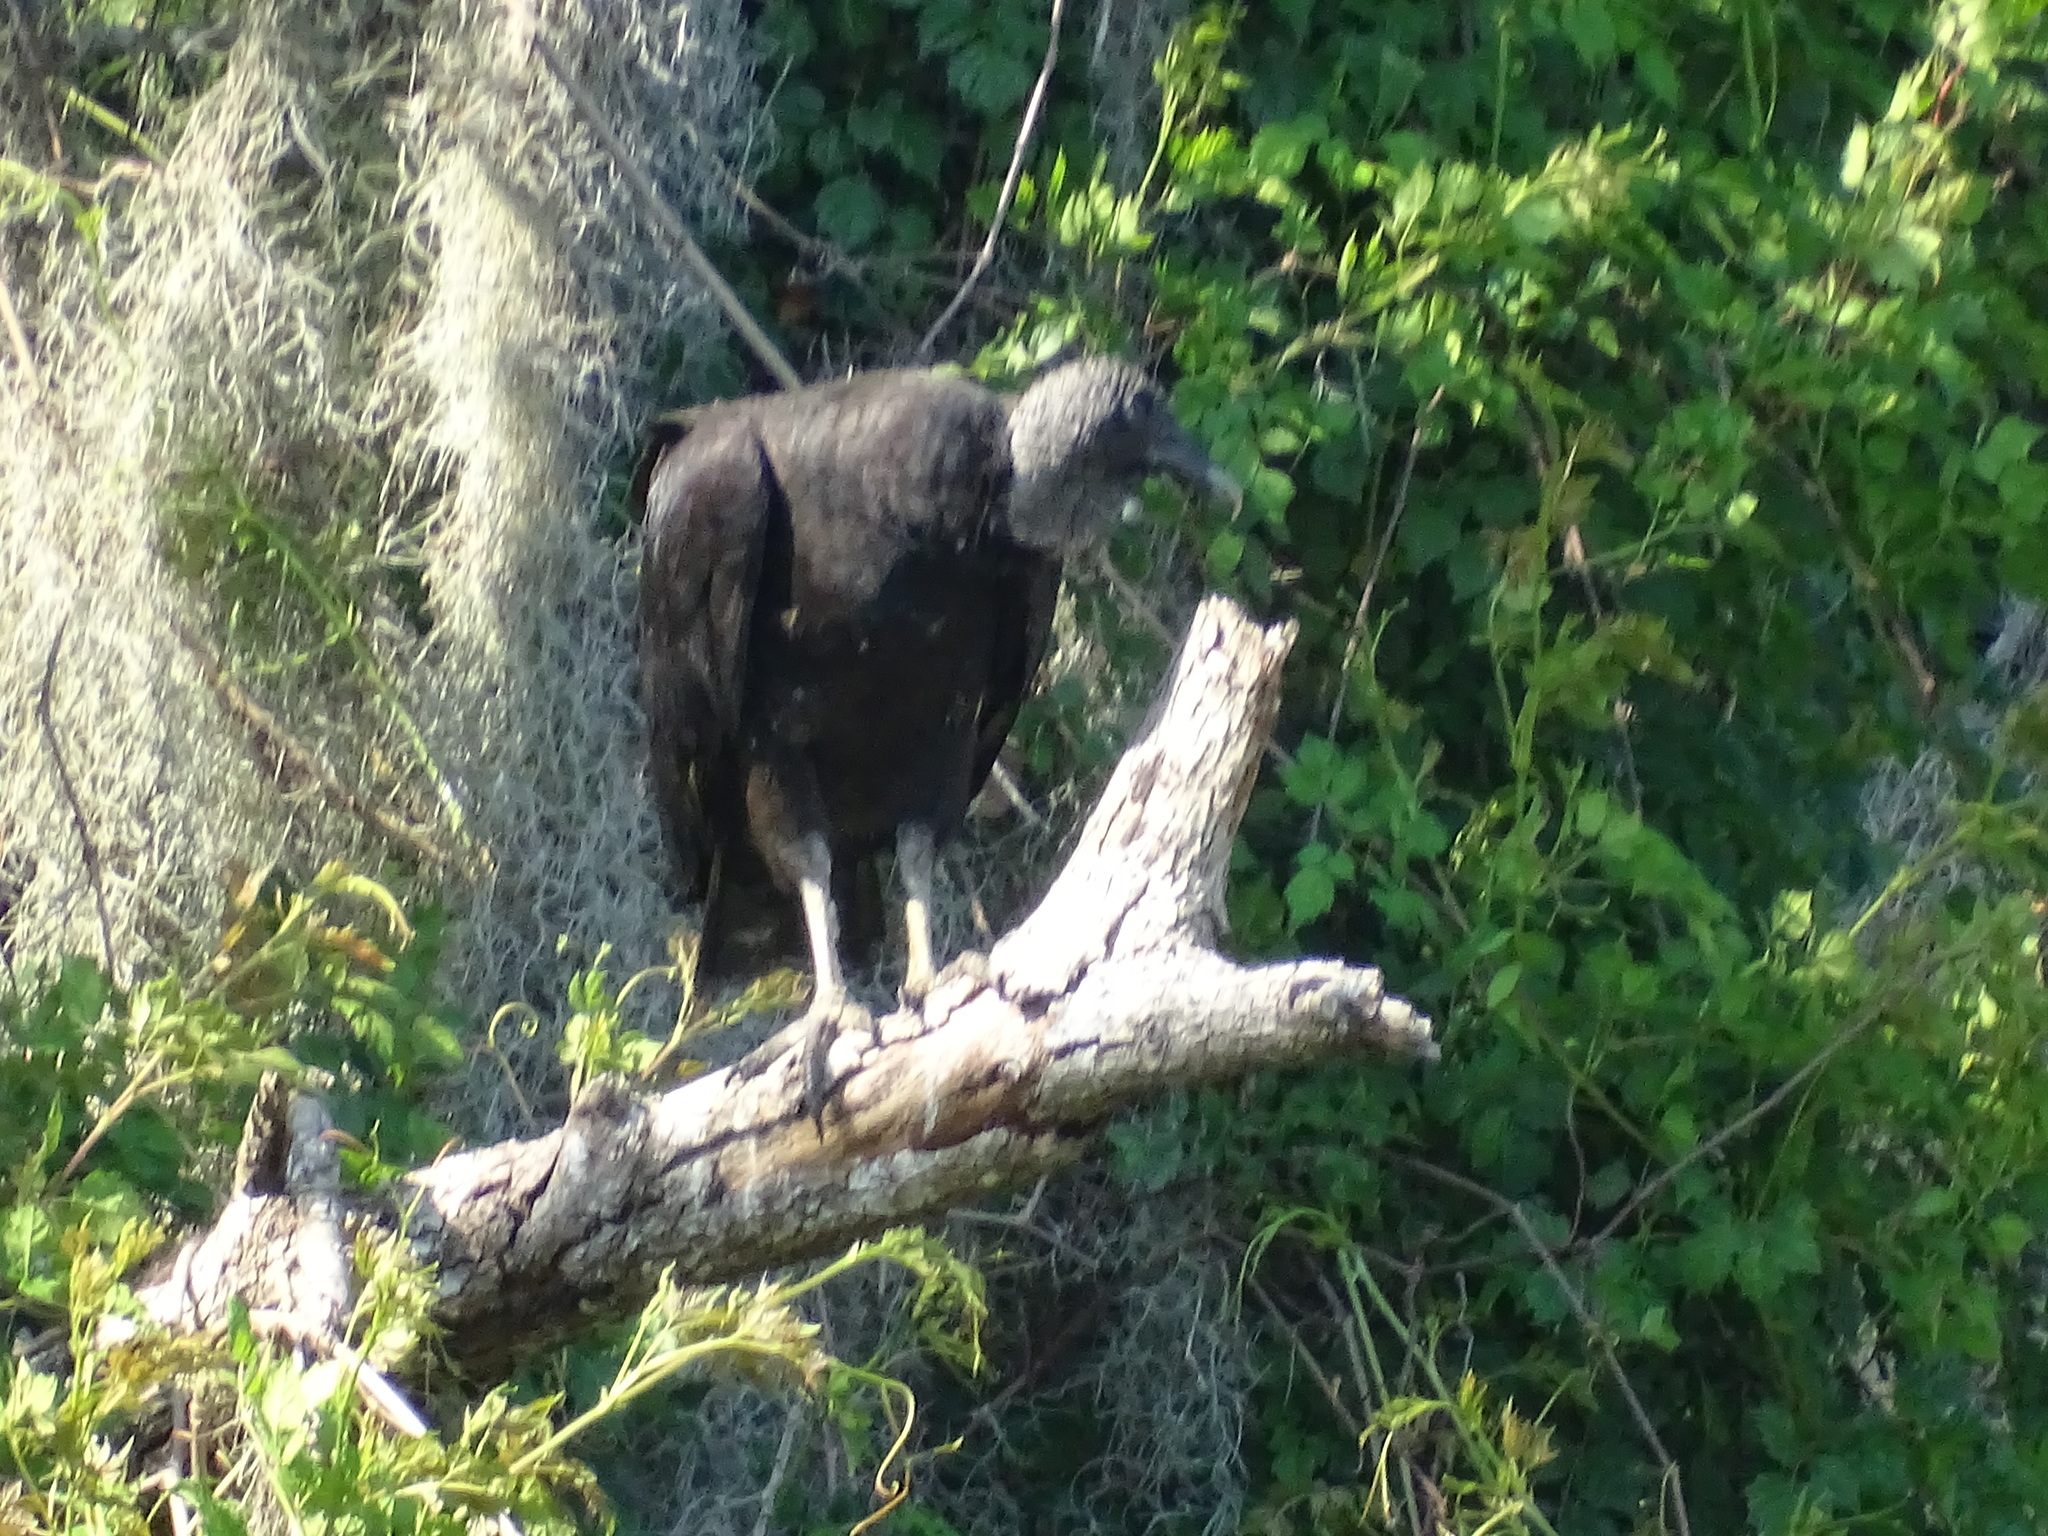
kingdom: Animalia
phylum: Chordata
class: Aves
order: Accipitriformes
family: Cathartidae
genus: Coragyps
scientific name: Coragyps atratus
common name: Black vulture
